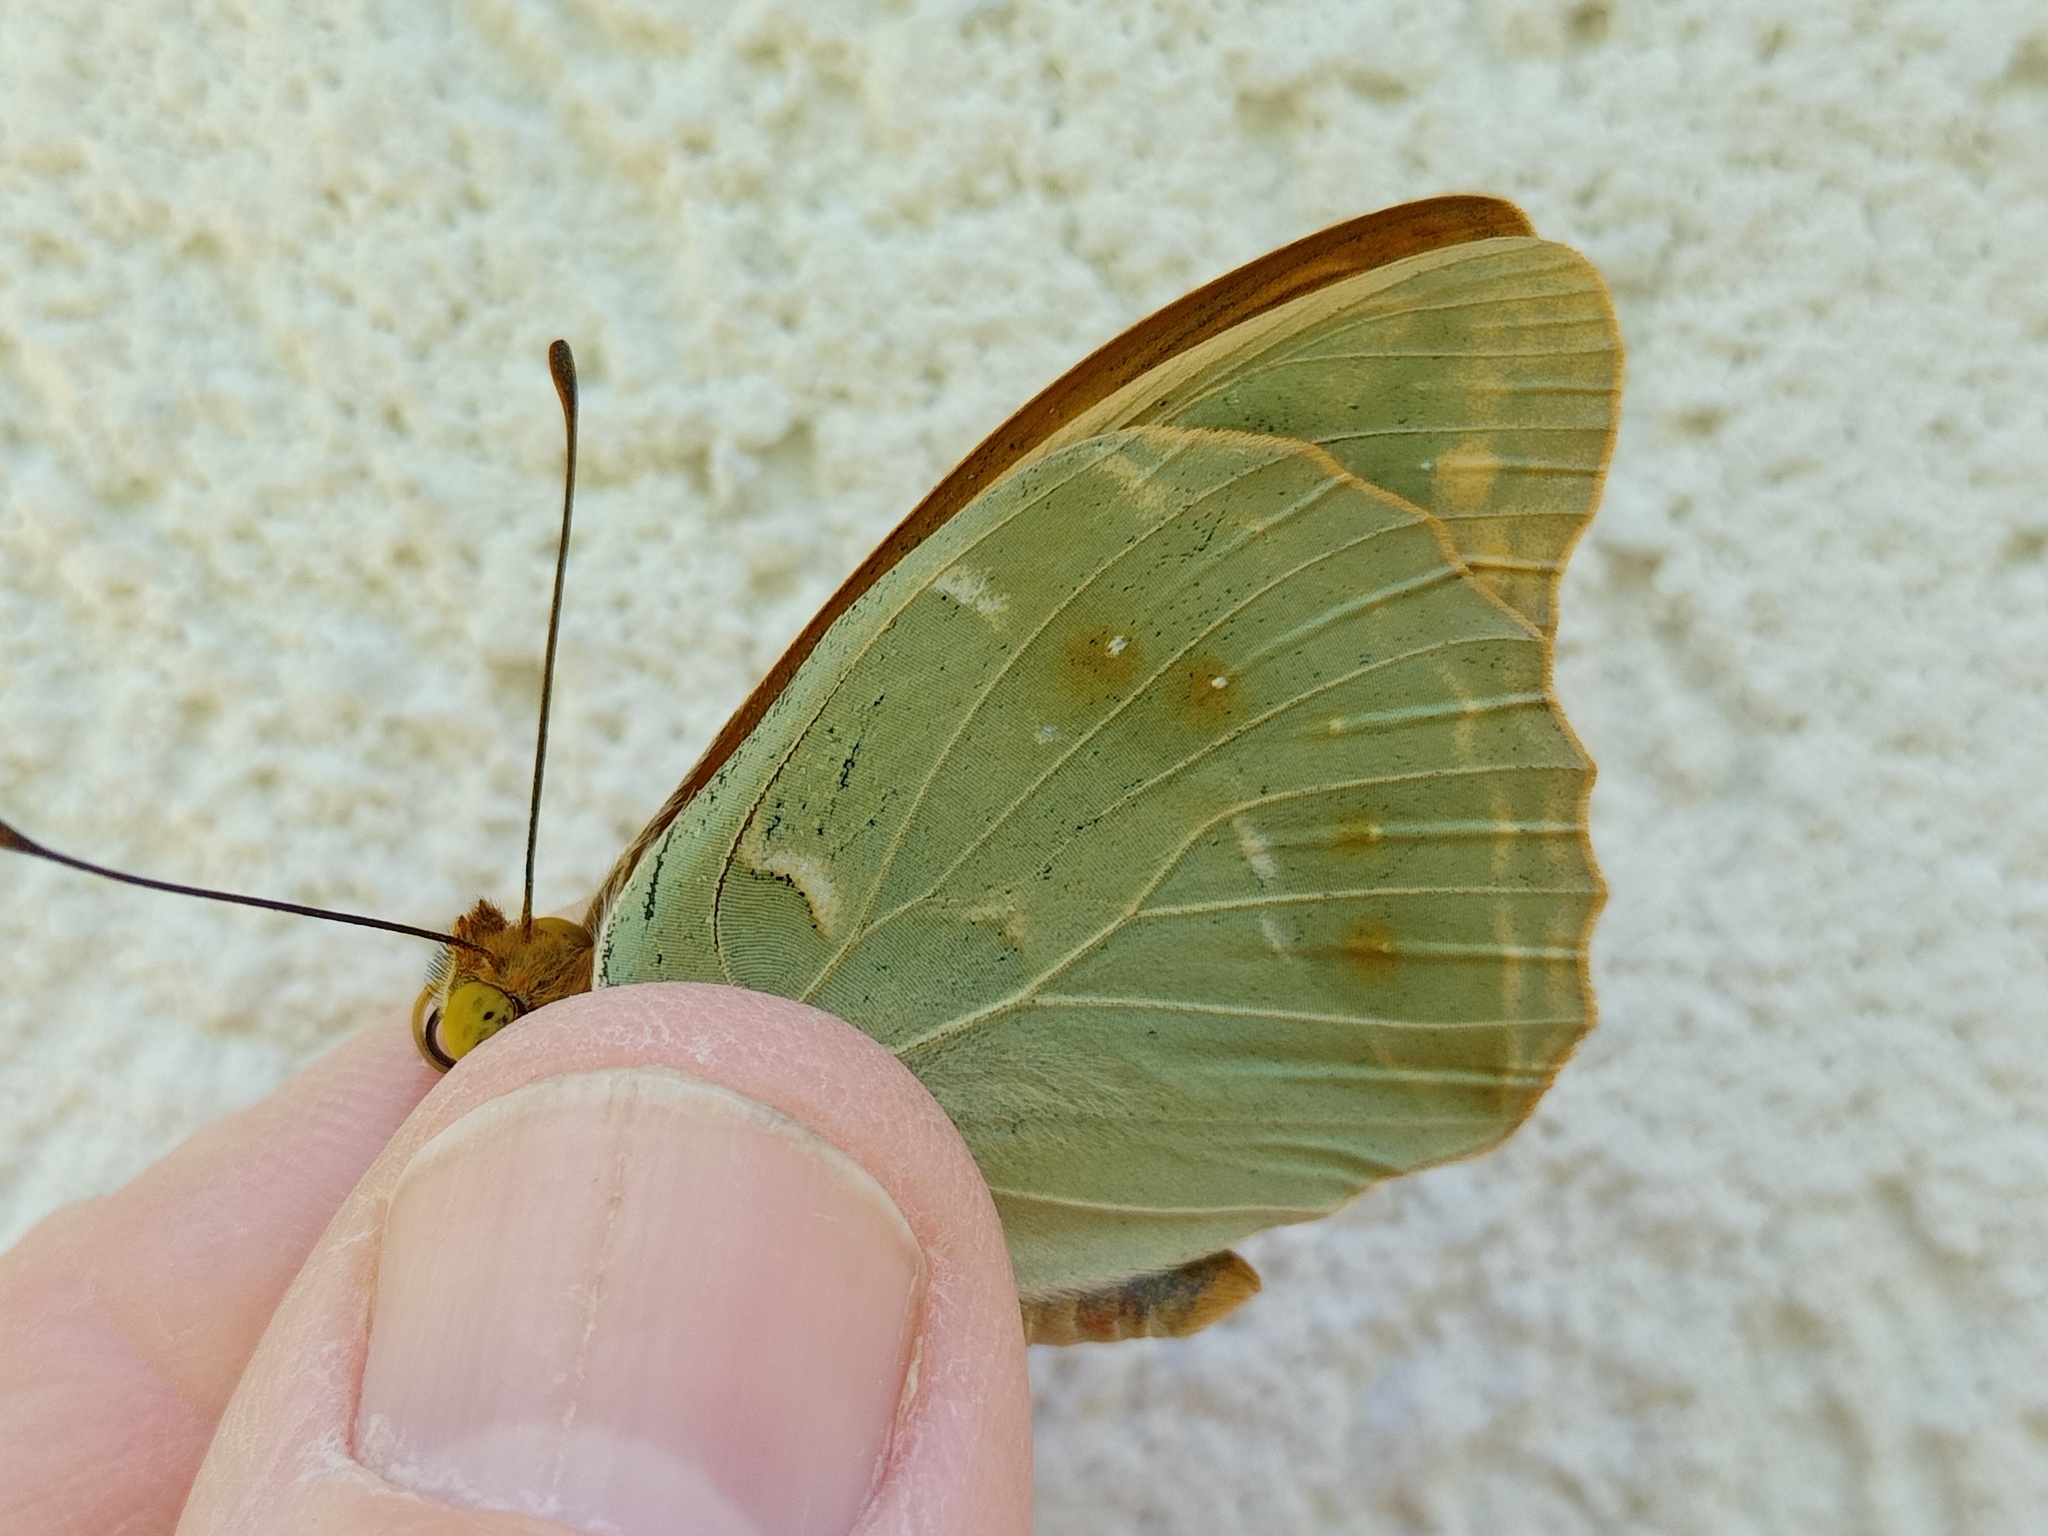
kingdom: Animalia
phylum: Arthropoda
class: Insecta
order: Lepidoptera
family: Nymphalidae
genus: Damora
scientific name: Damora pandora
